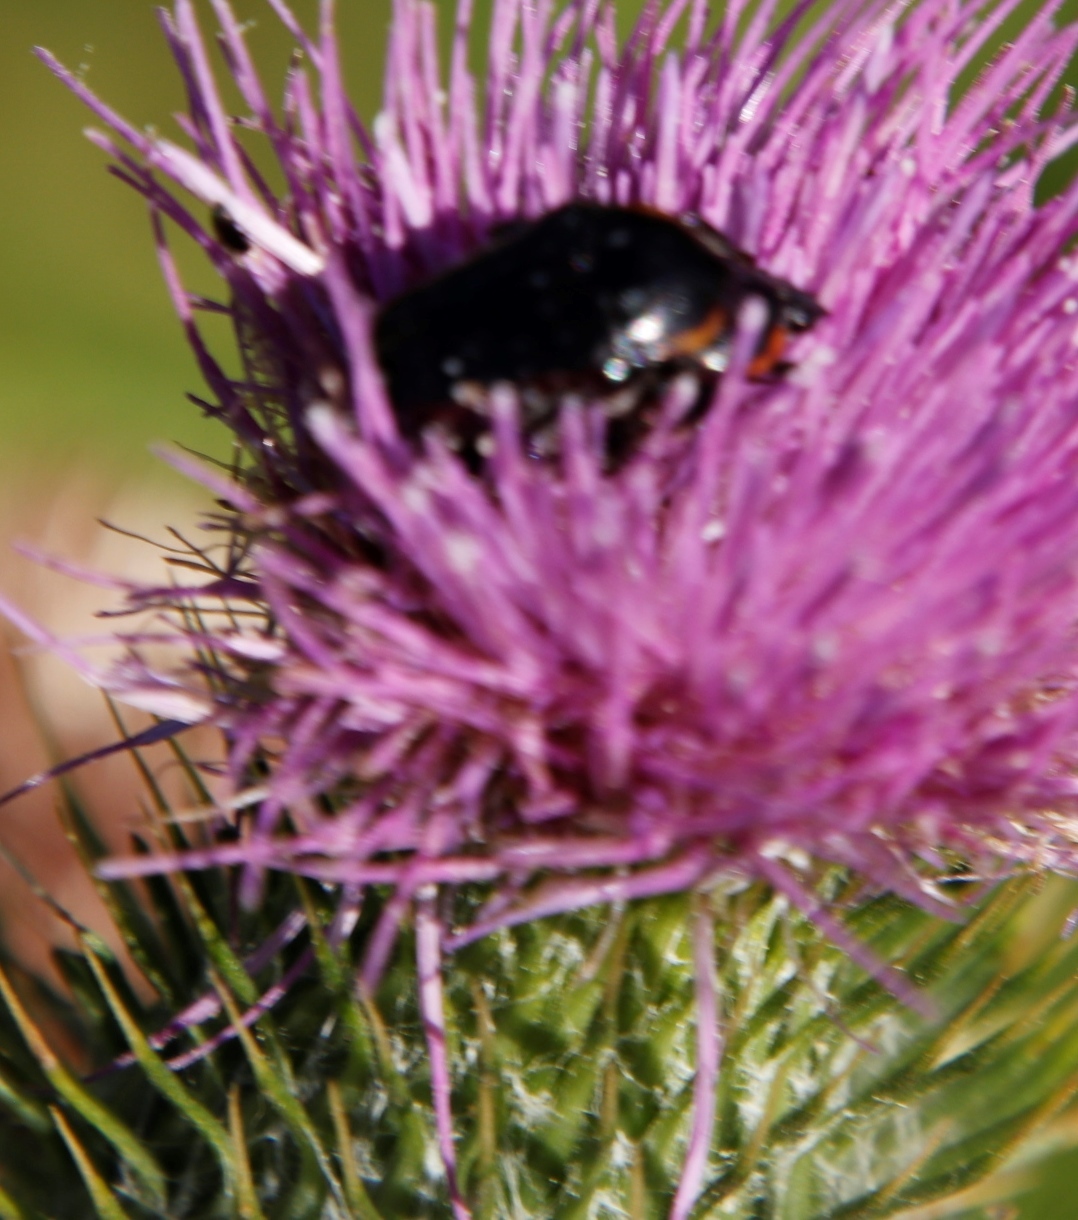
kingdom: Animalia
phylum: Arthropoda
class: Insecta
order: Coleoptera
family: Scarabaeidae
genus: Oxythyrea
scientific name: Oxythyrea
